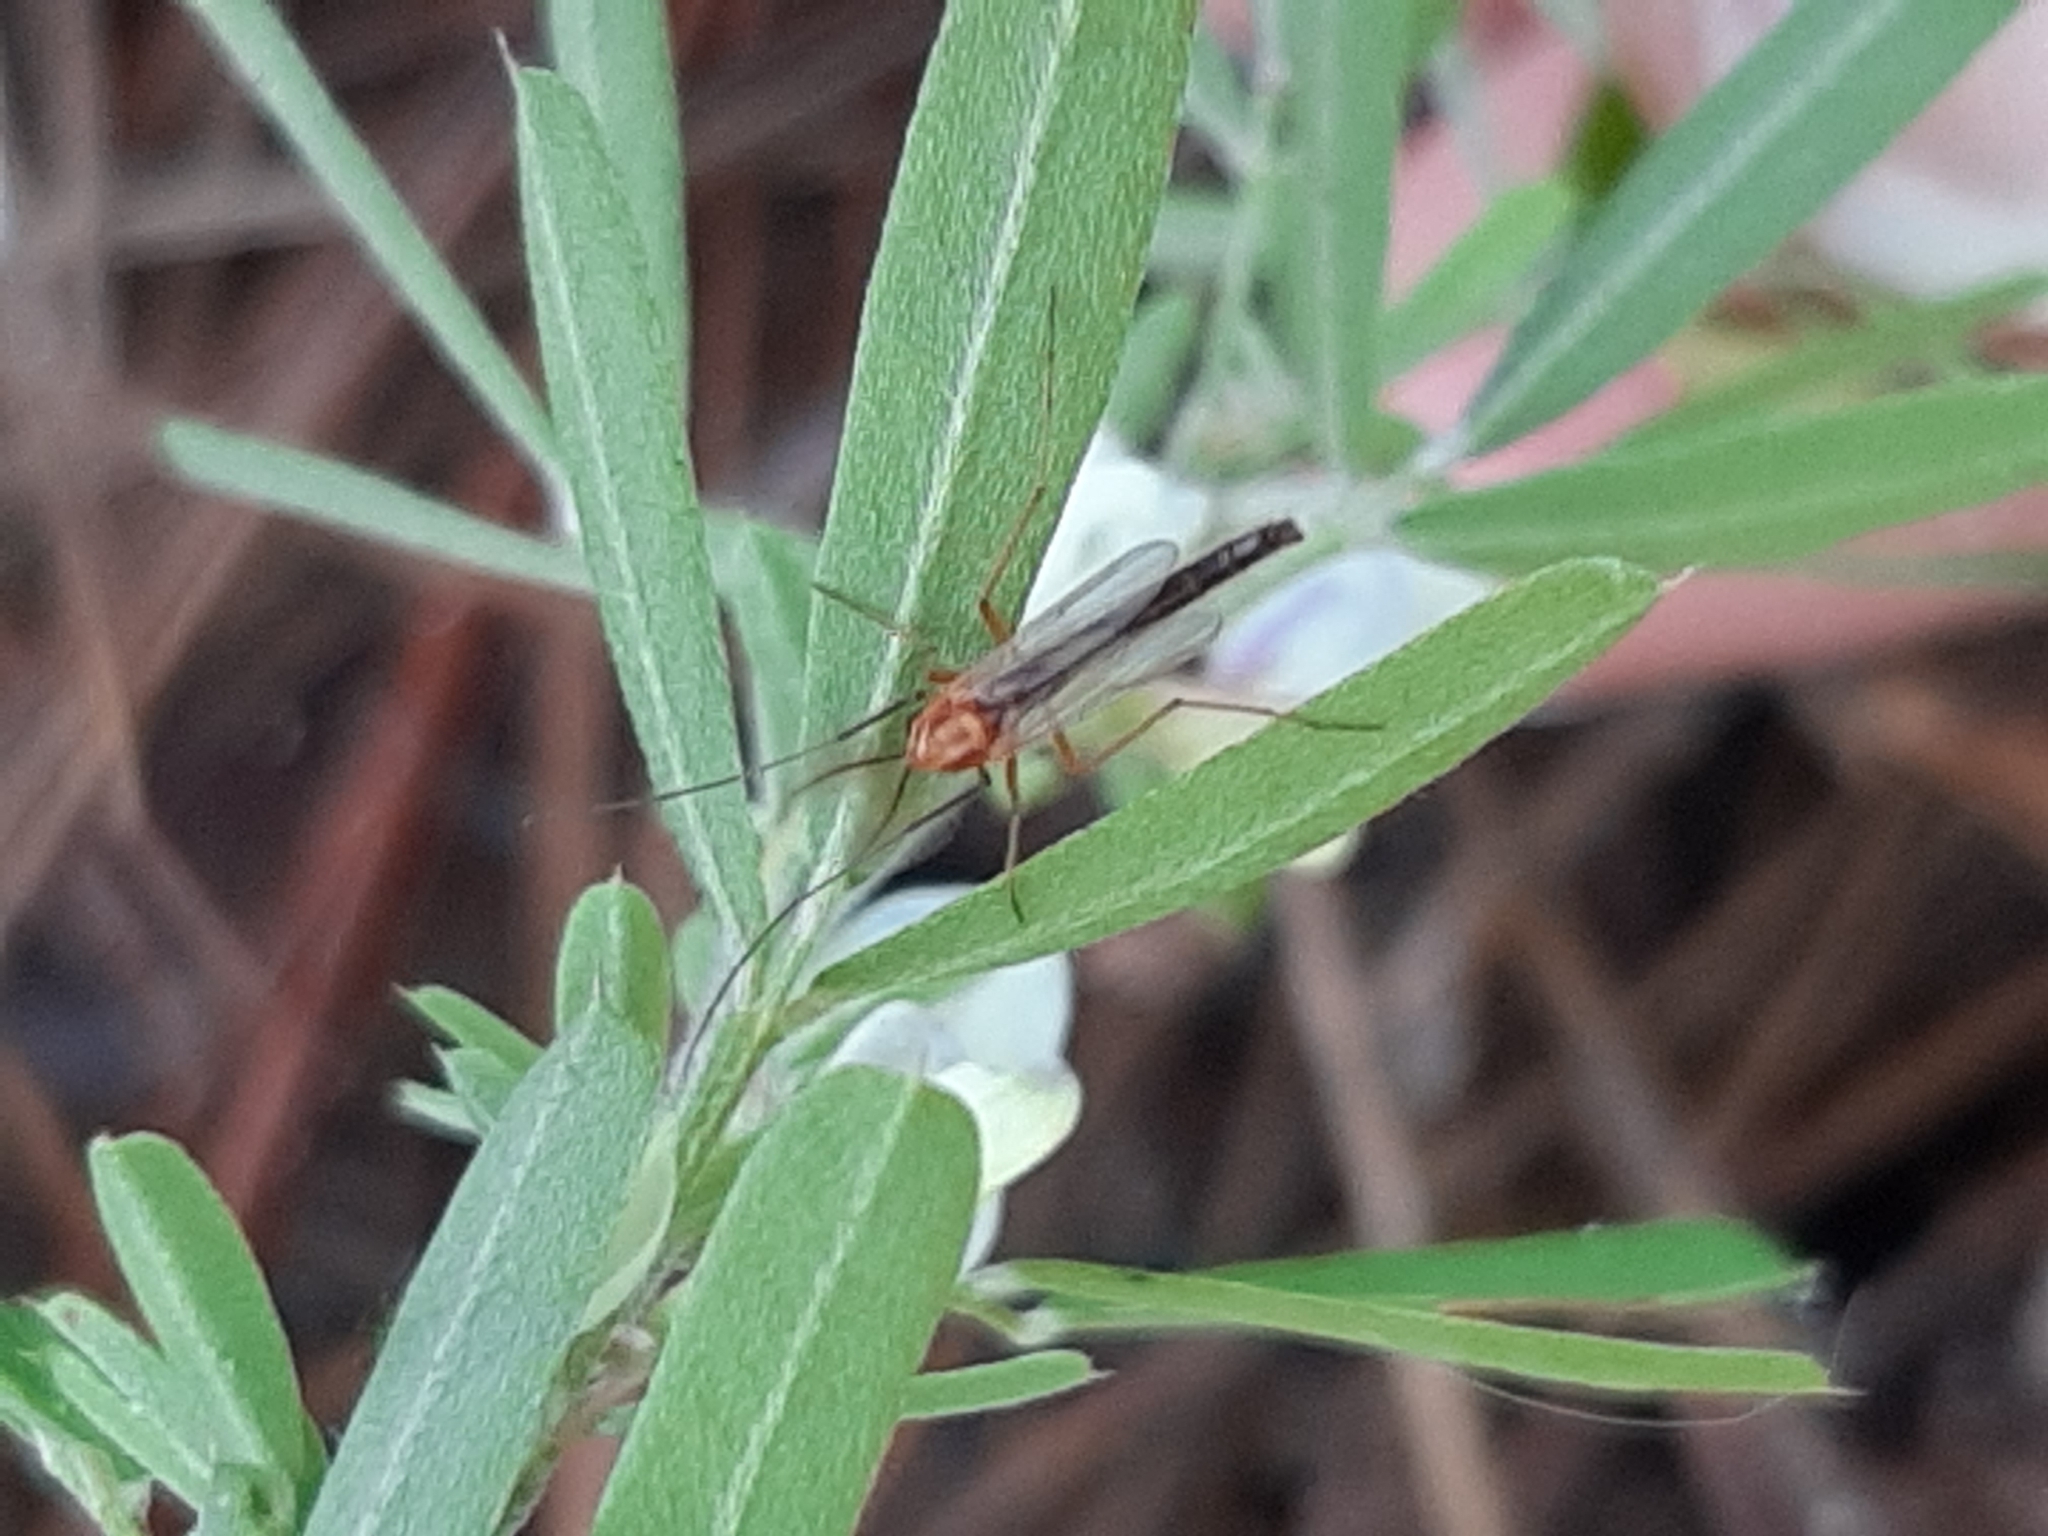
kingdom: Animalia
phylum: Arthropoda
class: Insecta
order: Diptera
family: Chironomidae
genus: Chironomus
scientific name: Chironomus ochreatus
